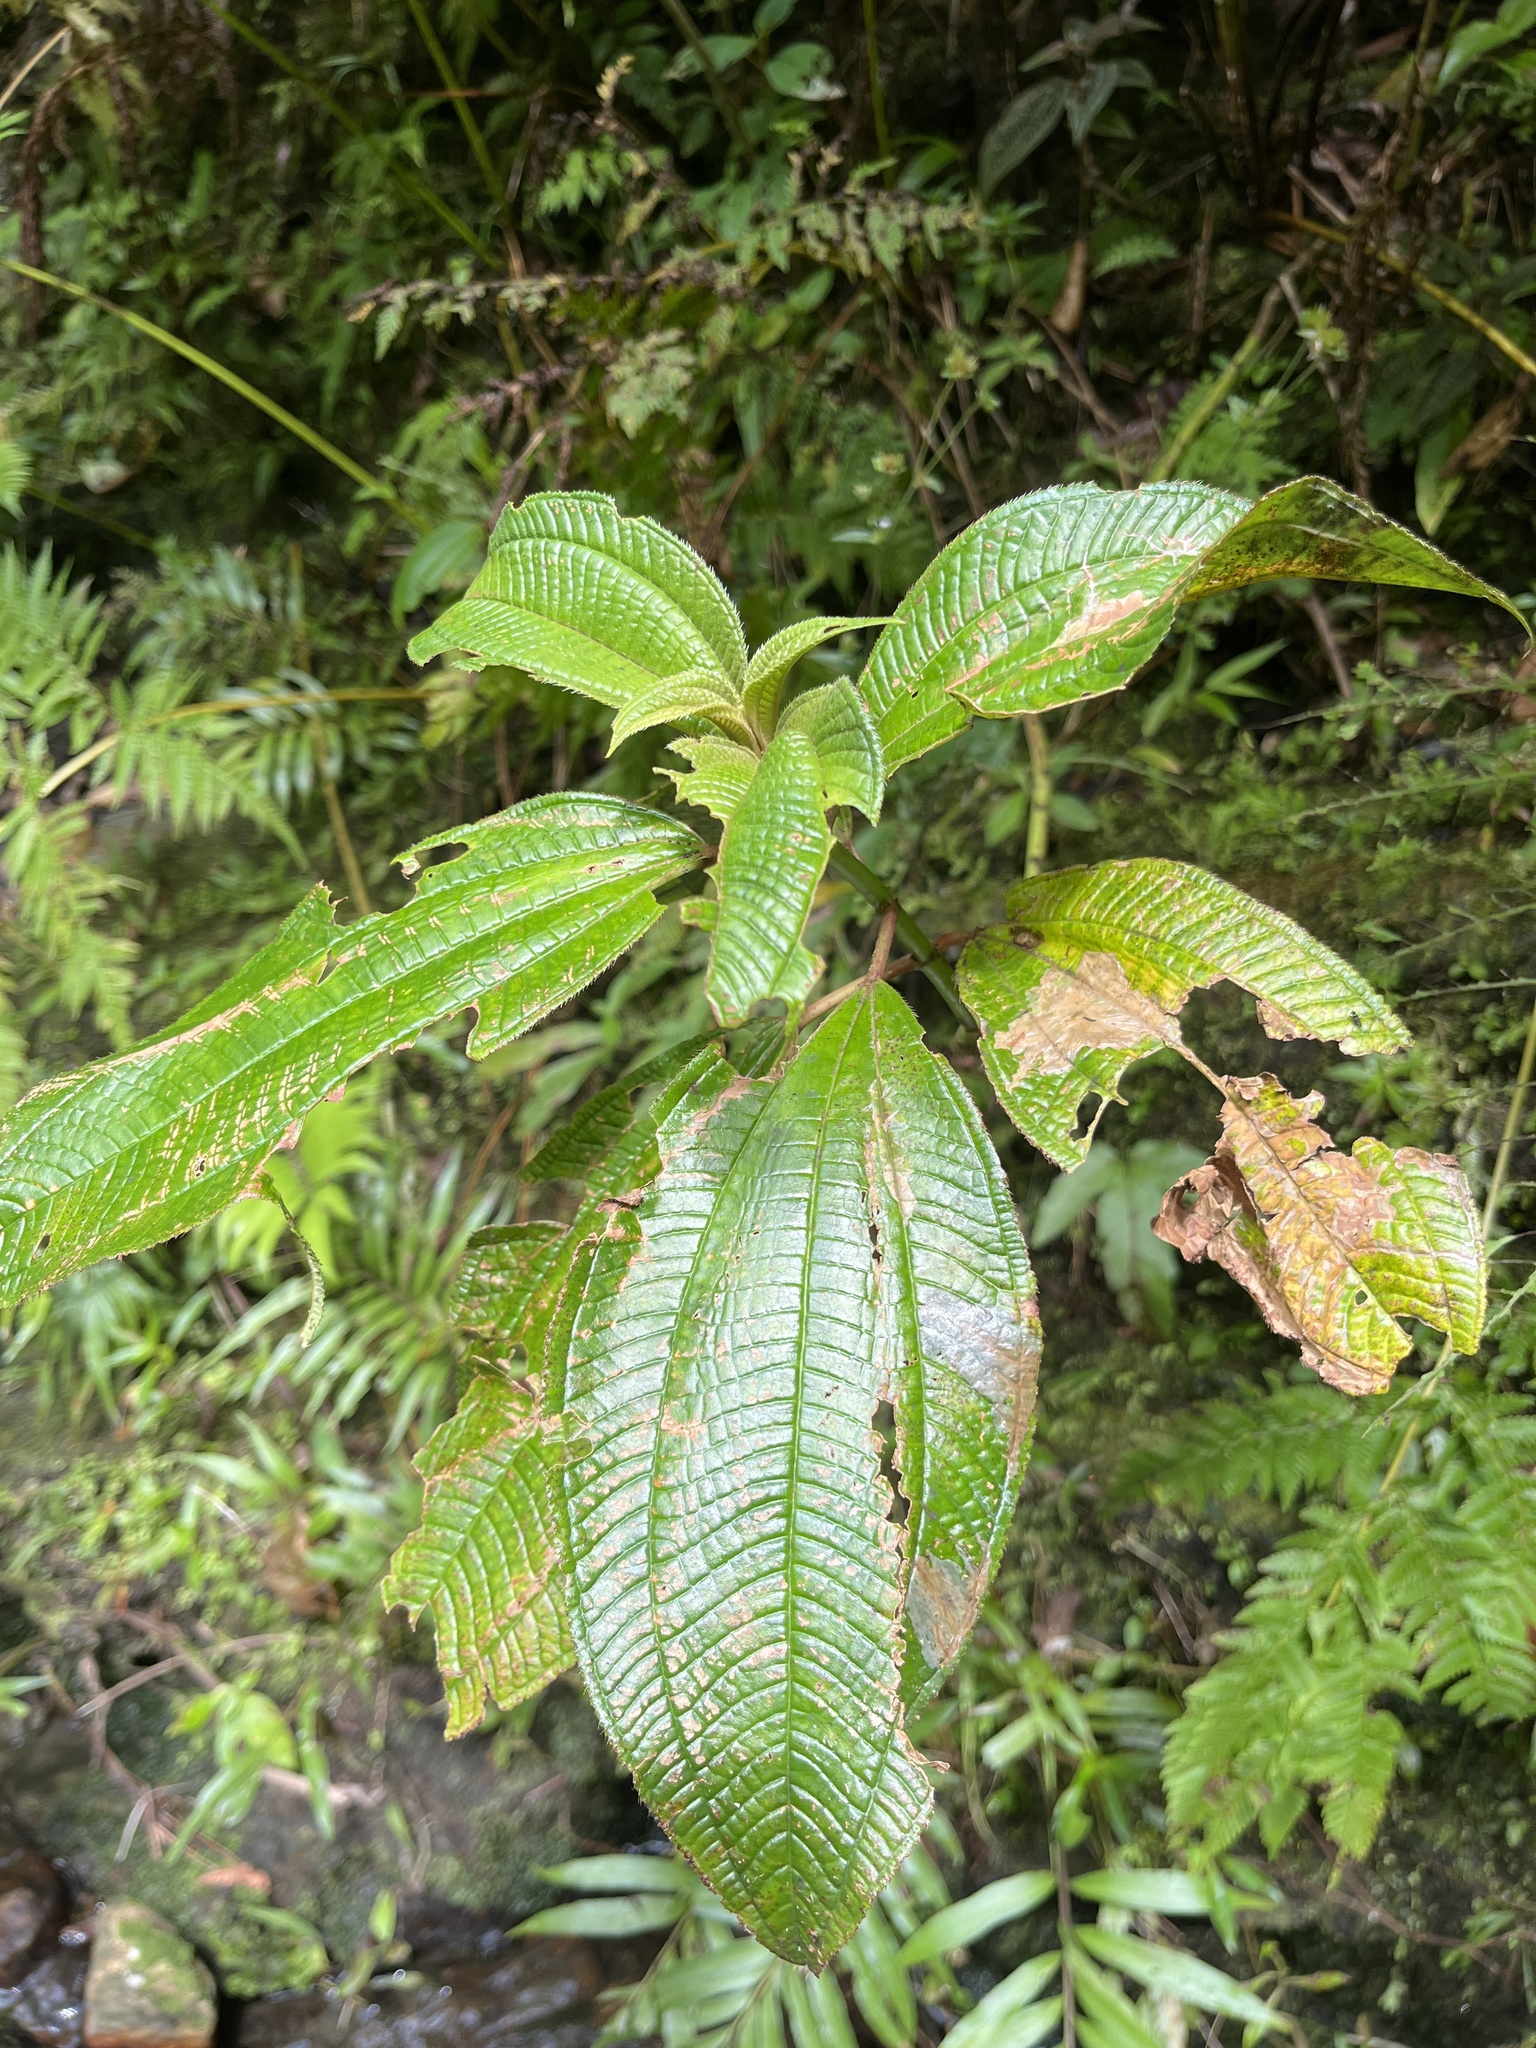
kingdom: Plantae
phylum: Tracheophyta
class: Magnoliopsida
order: Myrtales
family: Melastomataceae
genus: Miconia
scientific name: Miconia racemosa
